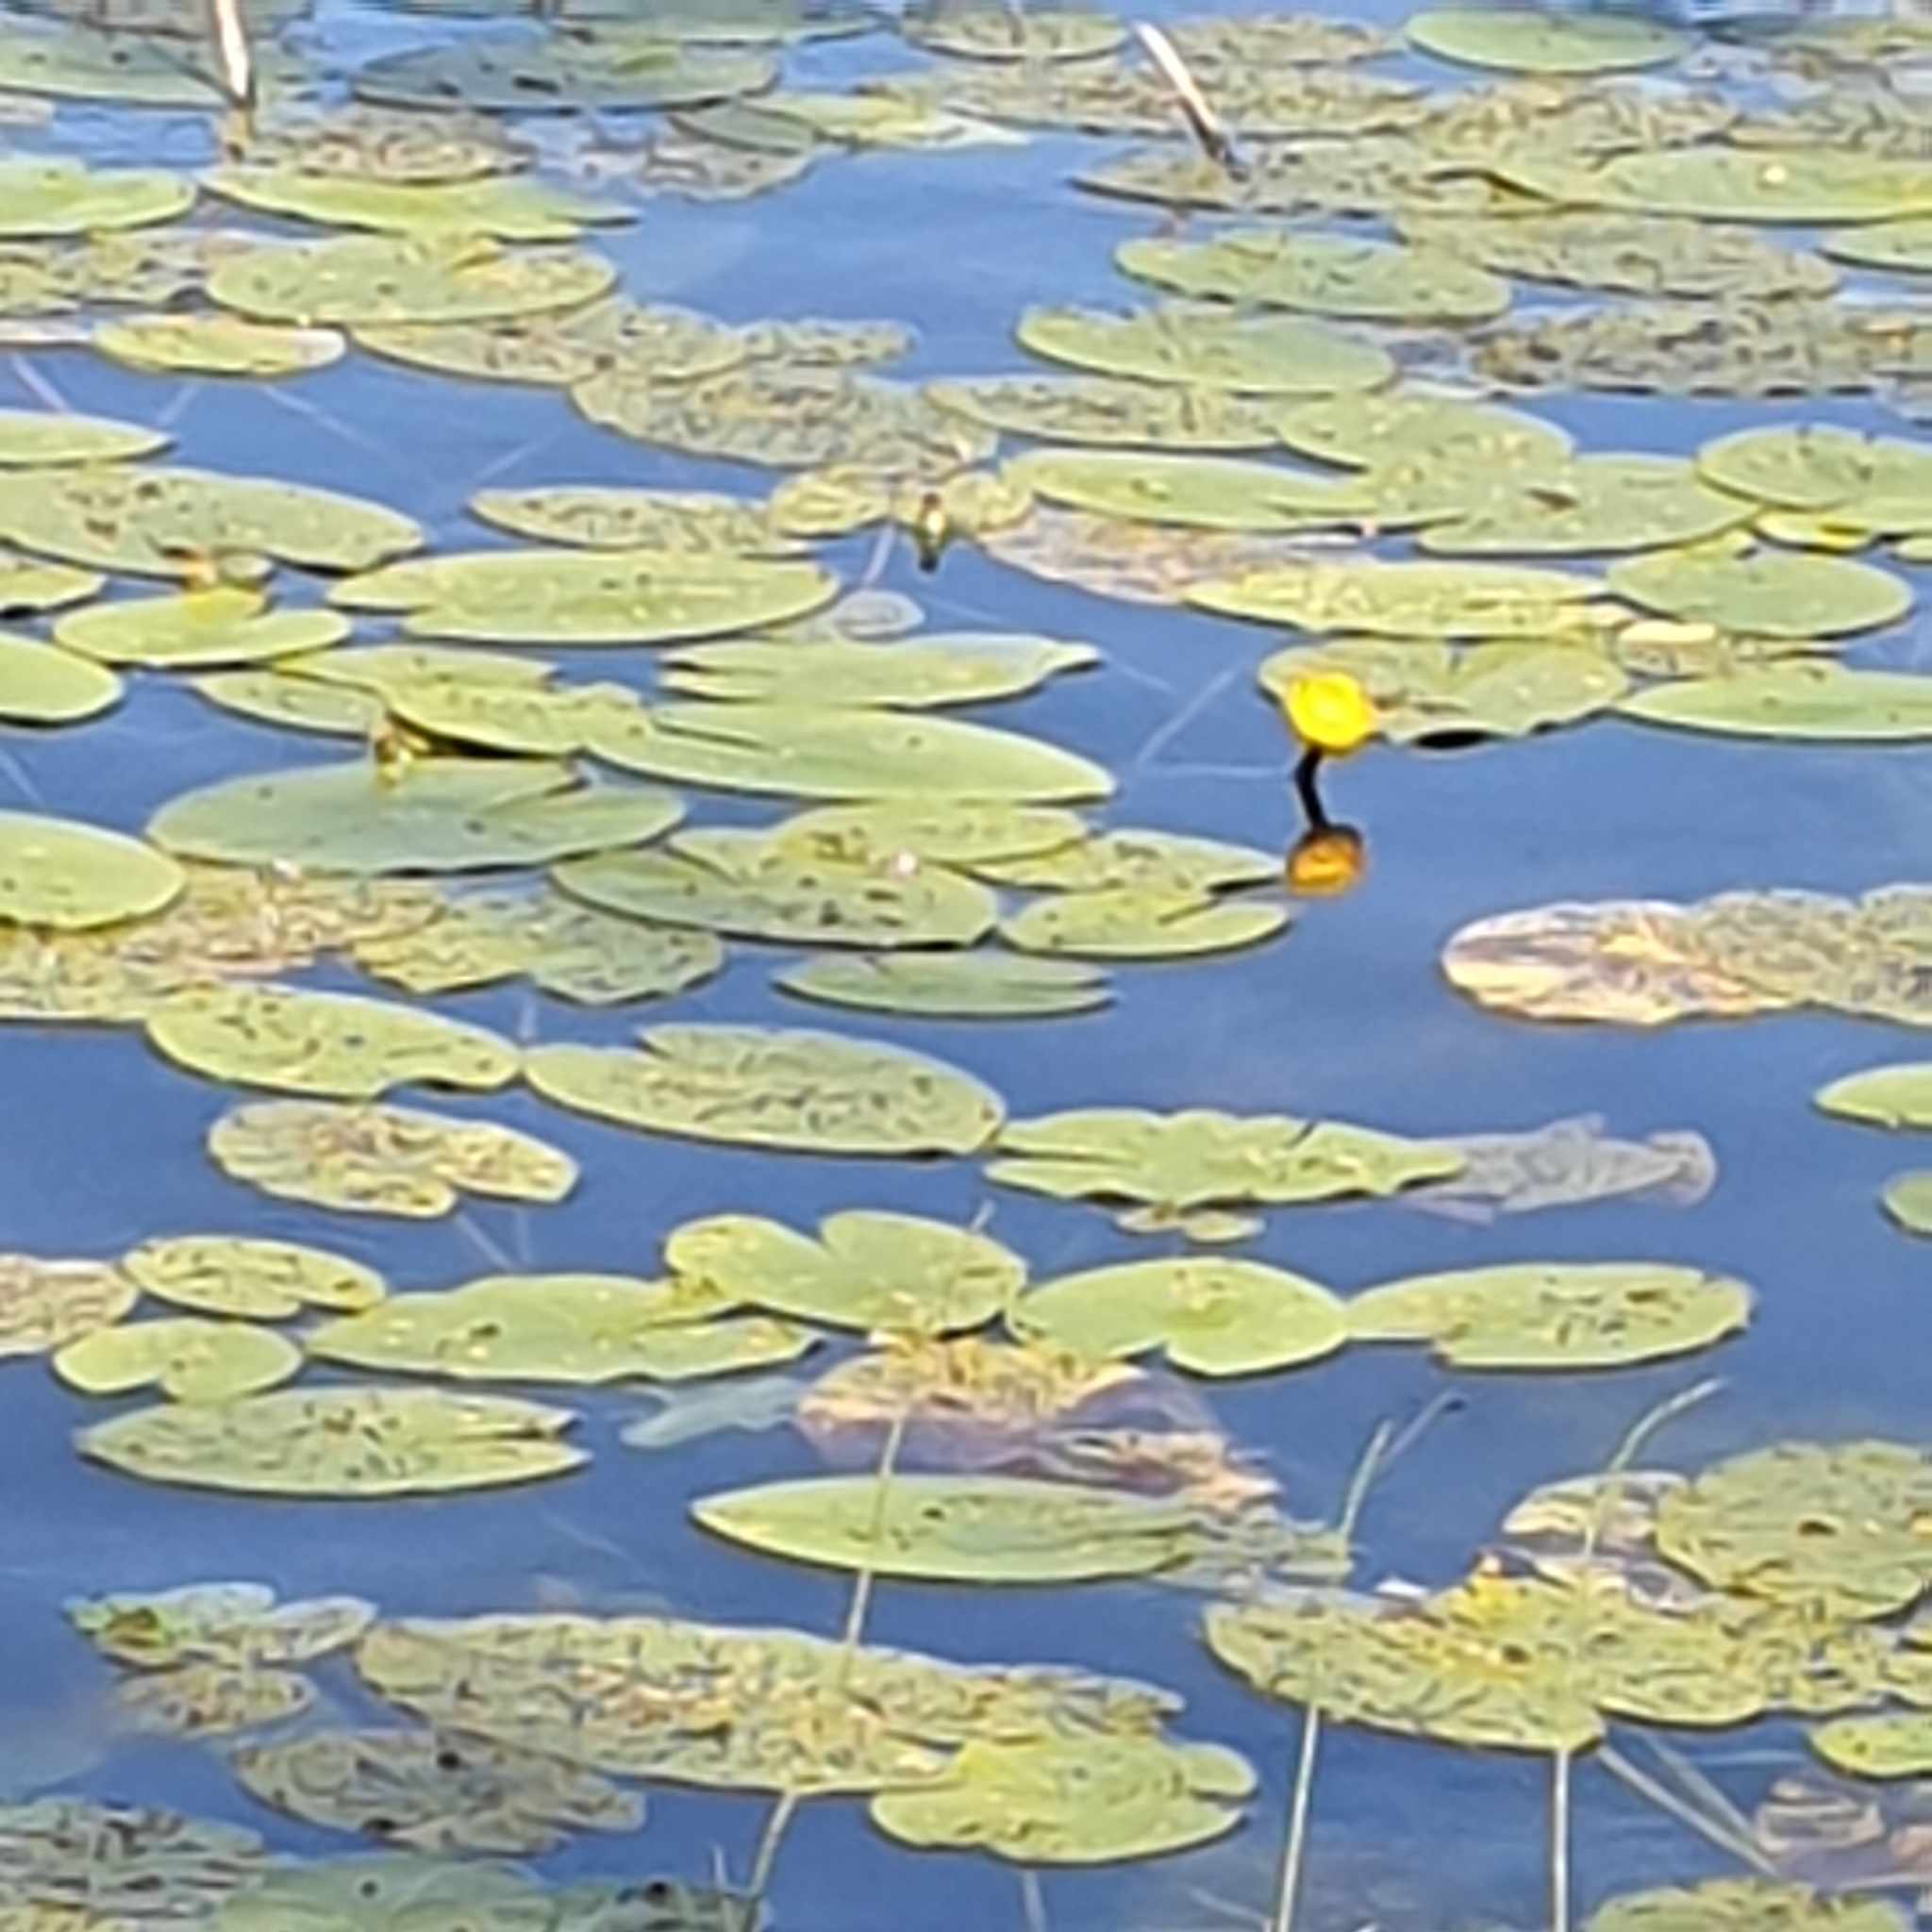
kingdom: Plantae
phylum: Tracheophyta
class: Magnoliopsida
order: Nymphaeales
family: Nymphaeaceae
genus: Nuphar
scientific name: Nuphar lutea
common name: Yellow water-lily
